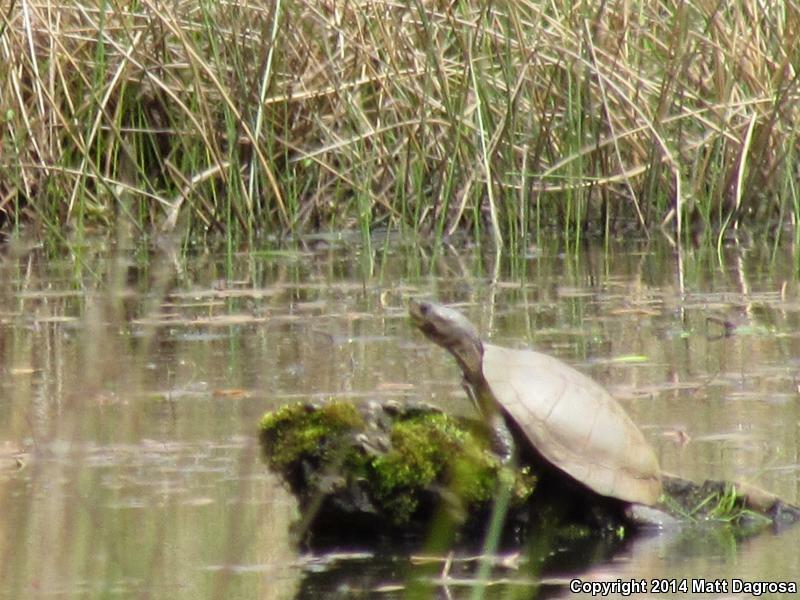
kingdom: Animalia
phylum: Chordata
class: Testudines
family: Emydidae
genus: Actinemys
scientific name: Actinemys marmorata
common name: Western pond turtle
